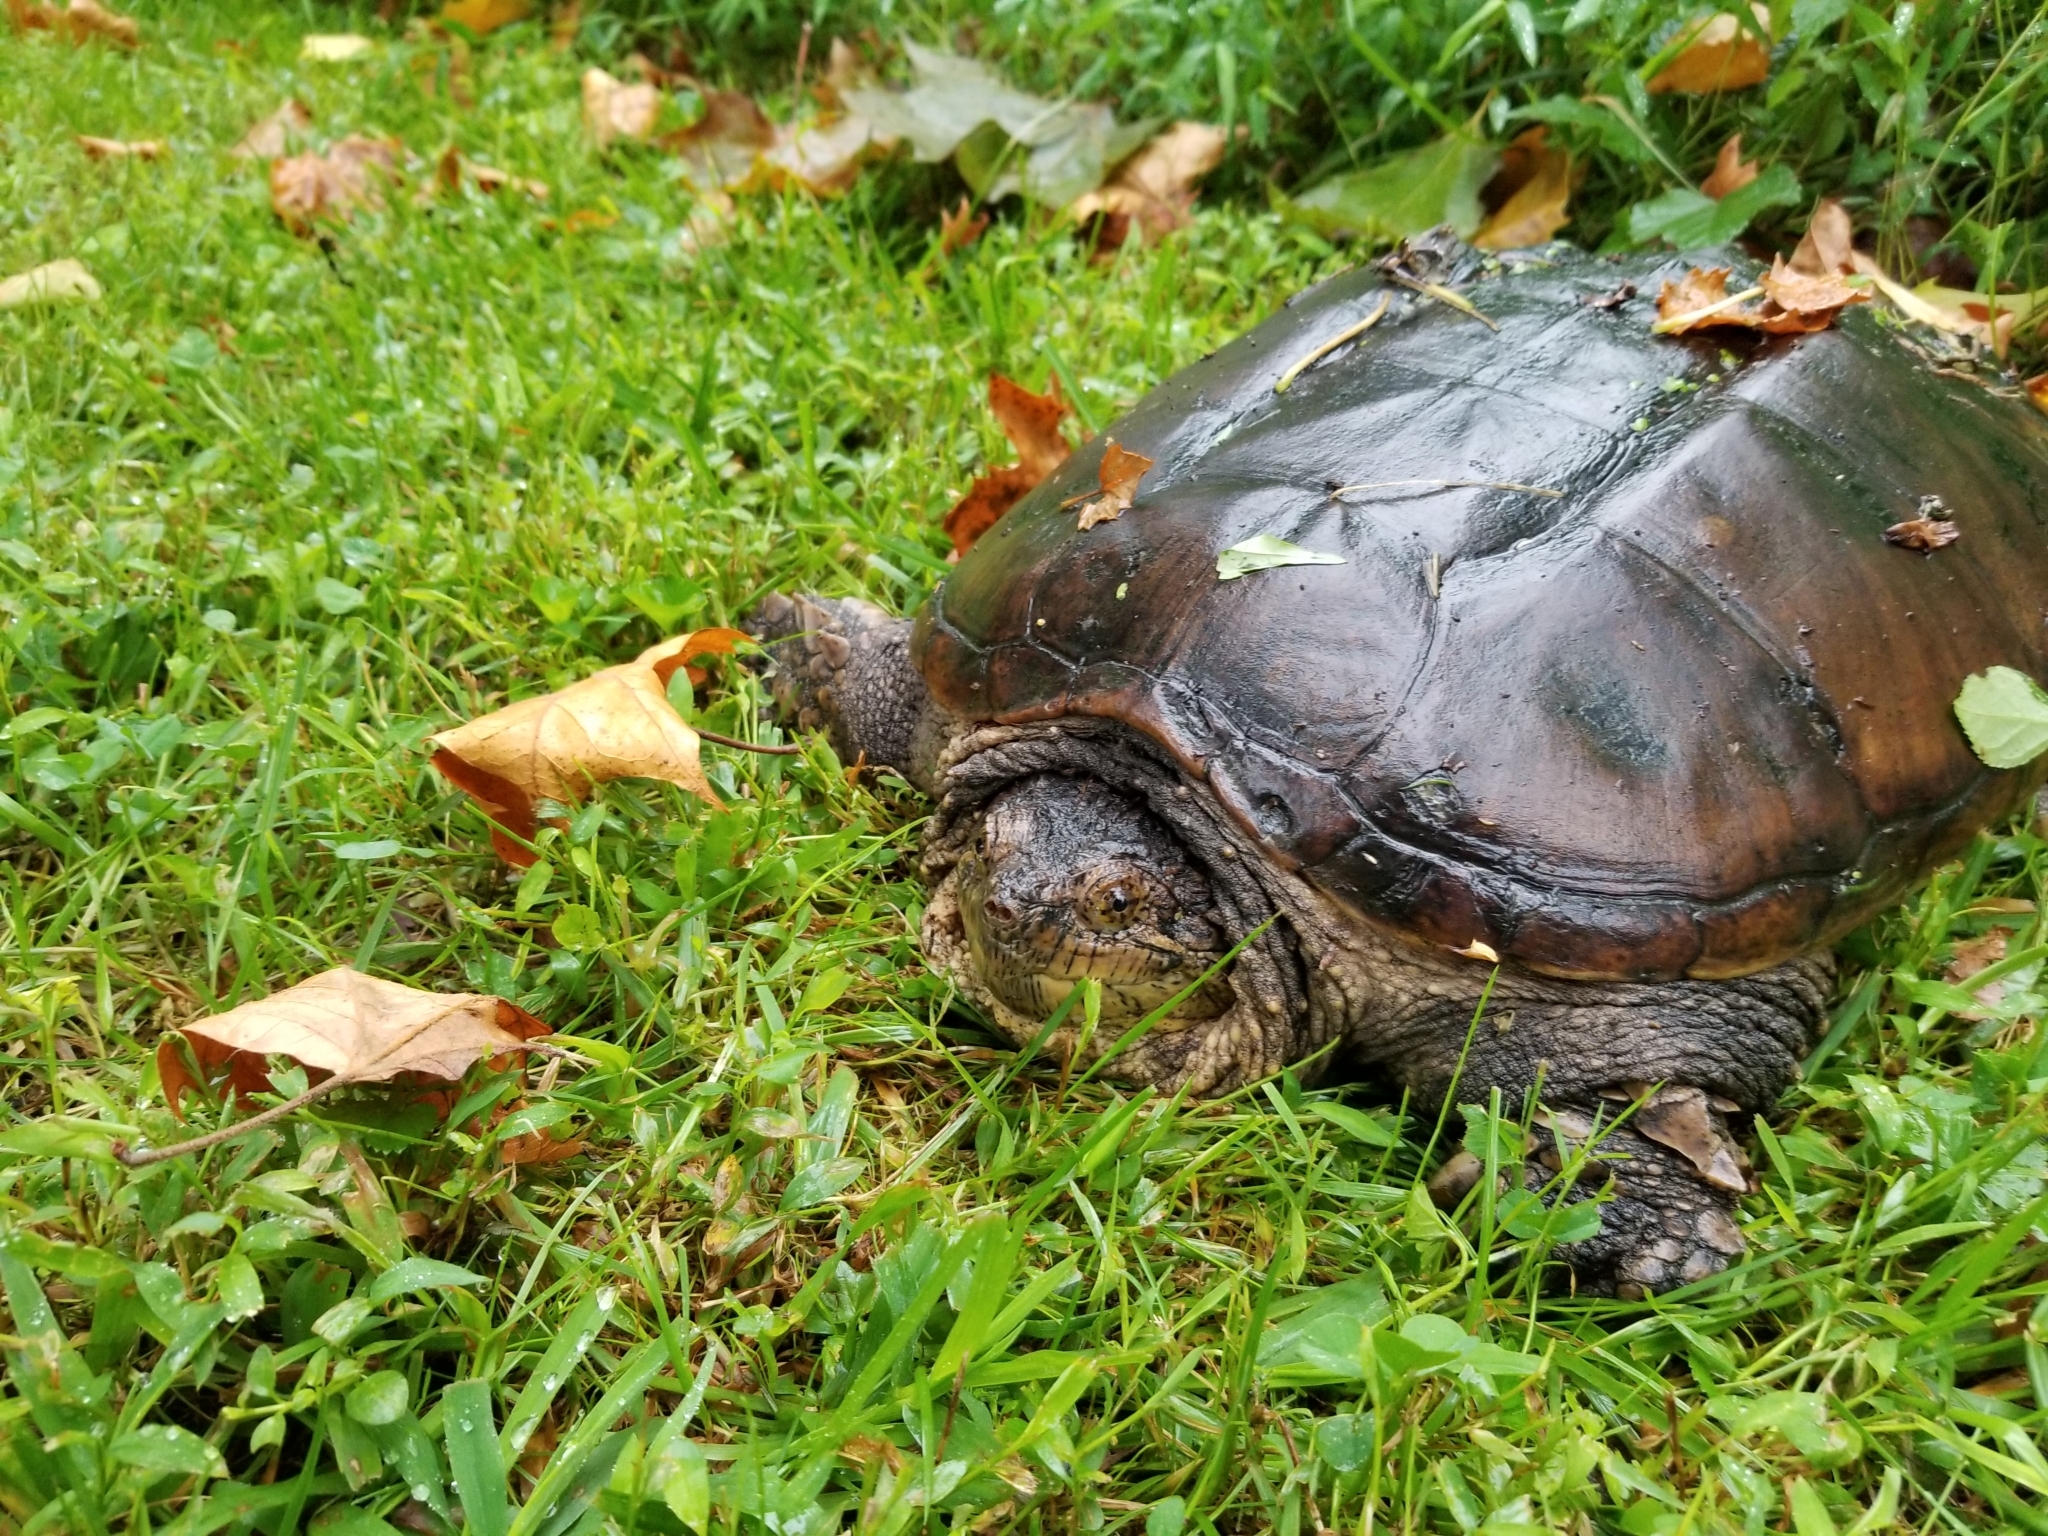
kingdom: Animalia
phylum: Chordata
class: Testudines
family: Chelydridae
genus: Chelydra
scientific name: Chelydra serpentina
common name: Common snapping turtle
